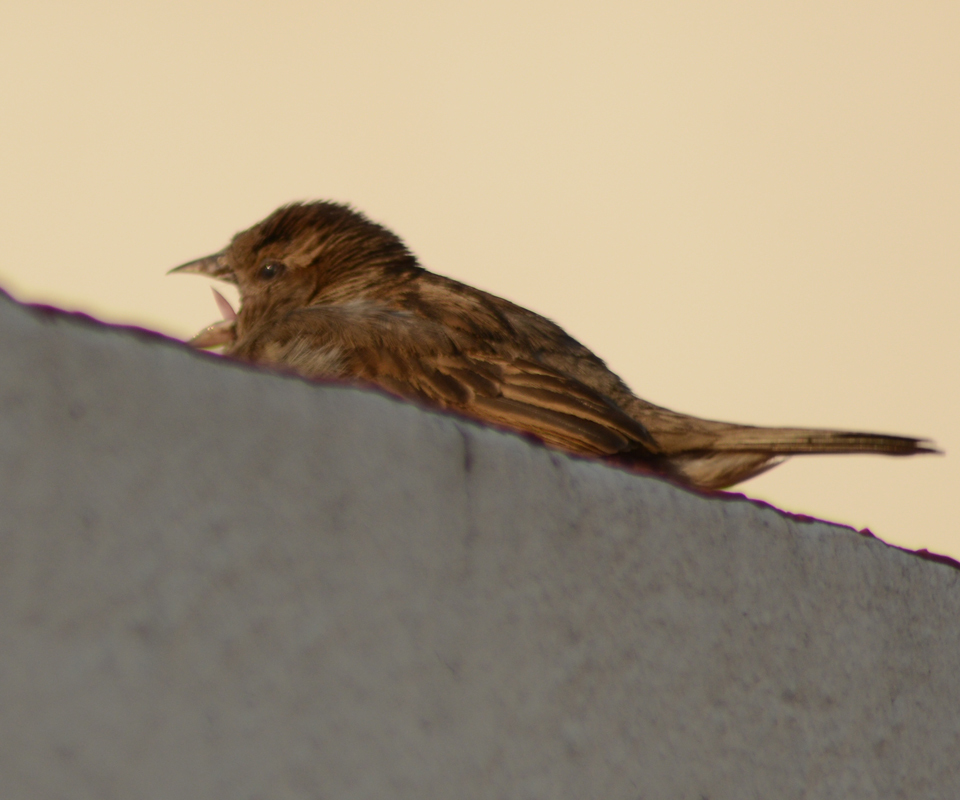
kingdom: Animalia
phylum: Chordata
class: Aves
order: Passeriformes
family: Passeridae
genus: Passer
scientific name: Passer domesticus
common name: House sparrow
